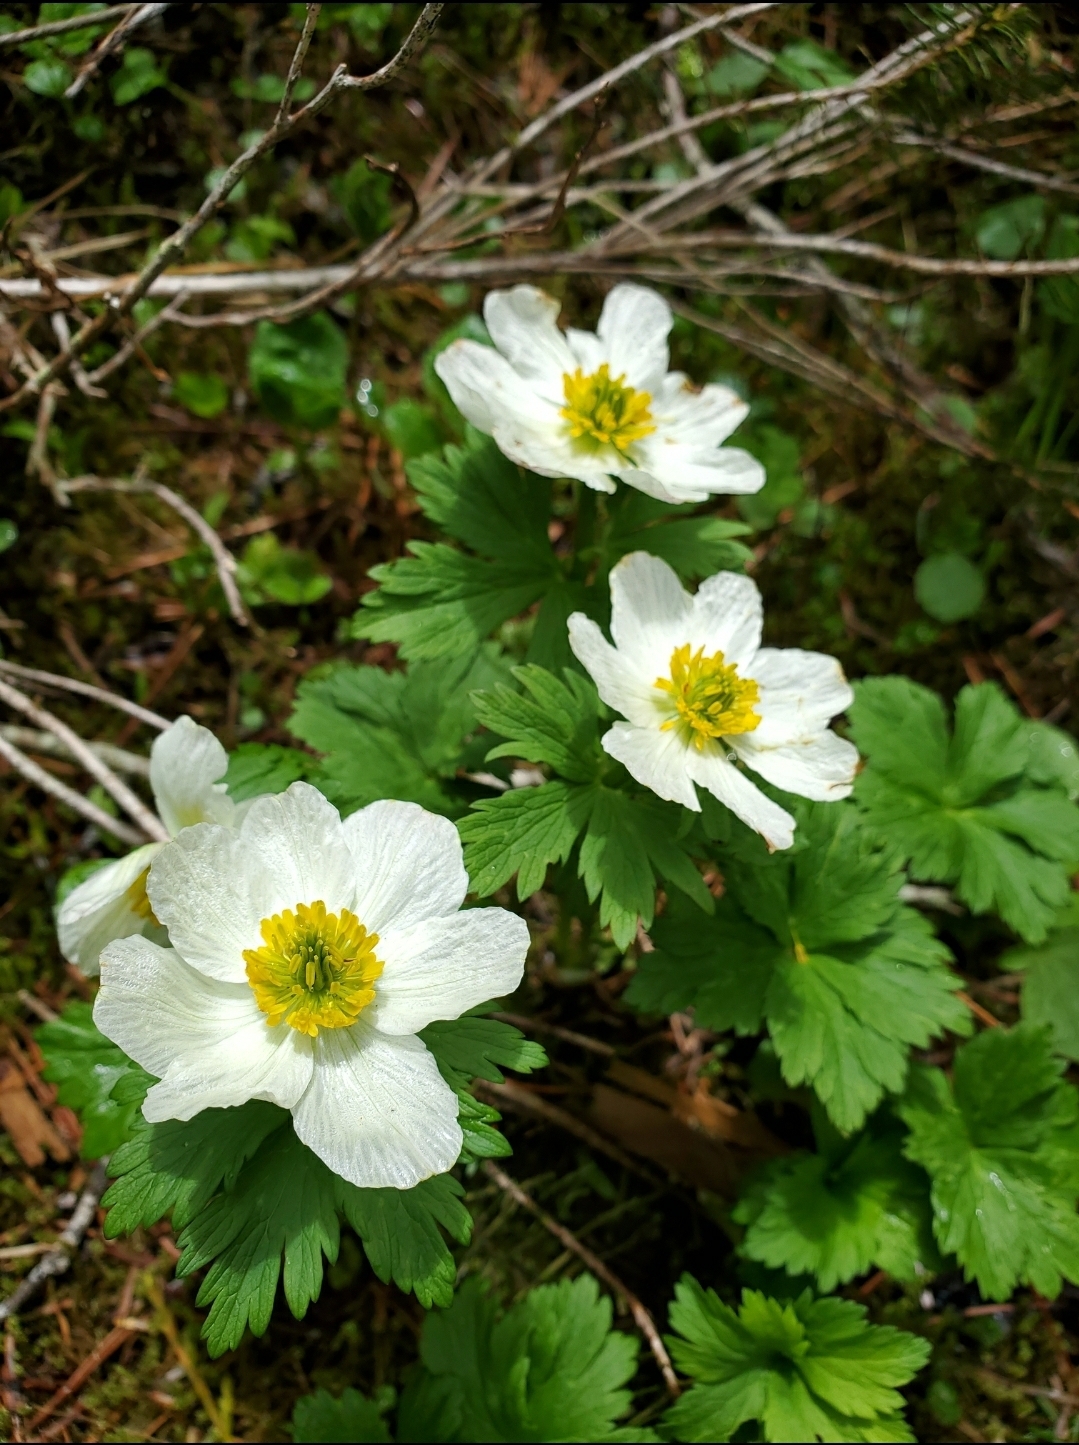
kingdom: Plantae
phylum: Tracheophyta
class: Magnoliopsida
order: Ranunculales
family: Ranunculaceae
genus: Trollius
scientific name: Trollius laxus
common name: American globeflower
